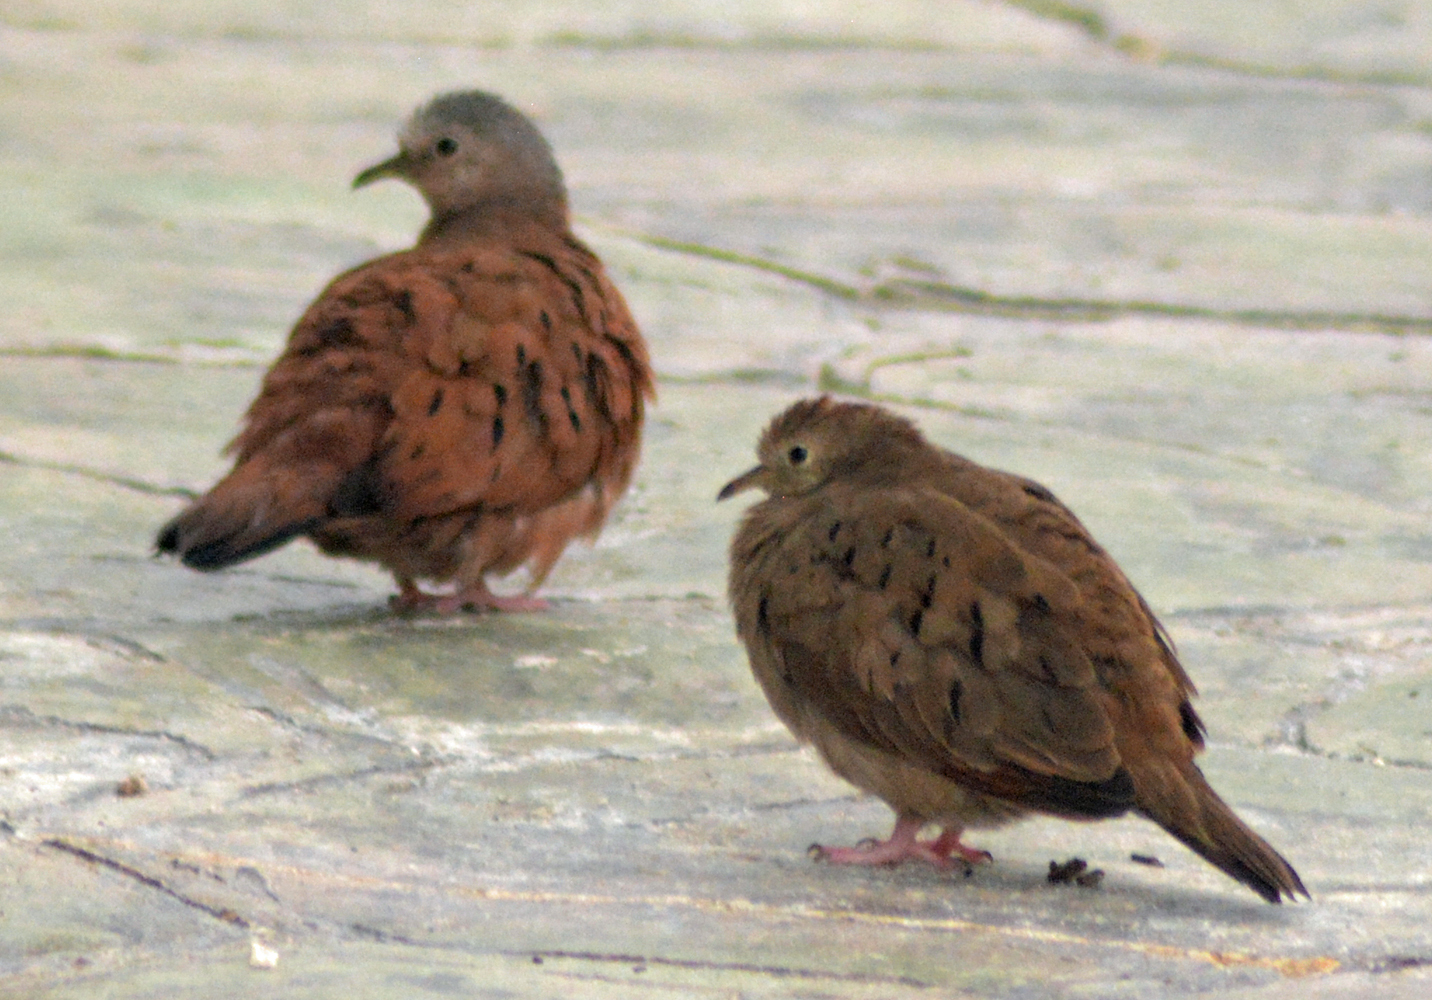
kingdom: Animalia
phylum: Chordata
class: Aves
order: Columbiformes
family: Columbidae
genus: Columbina
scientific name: Columbina talpacoti
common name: Ruddy ground dove
